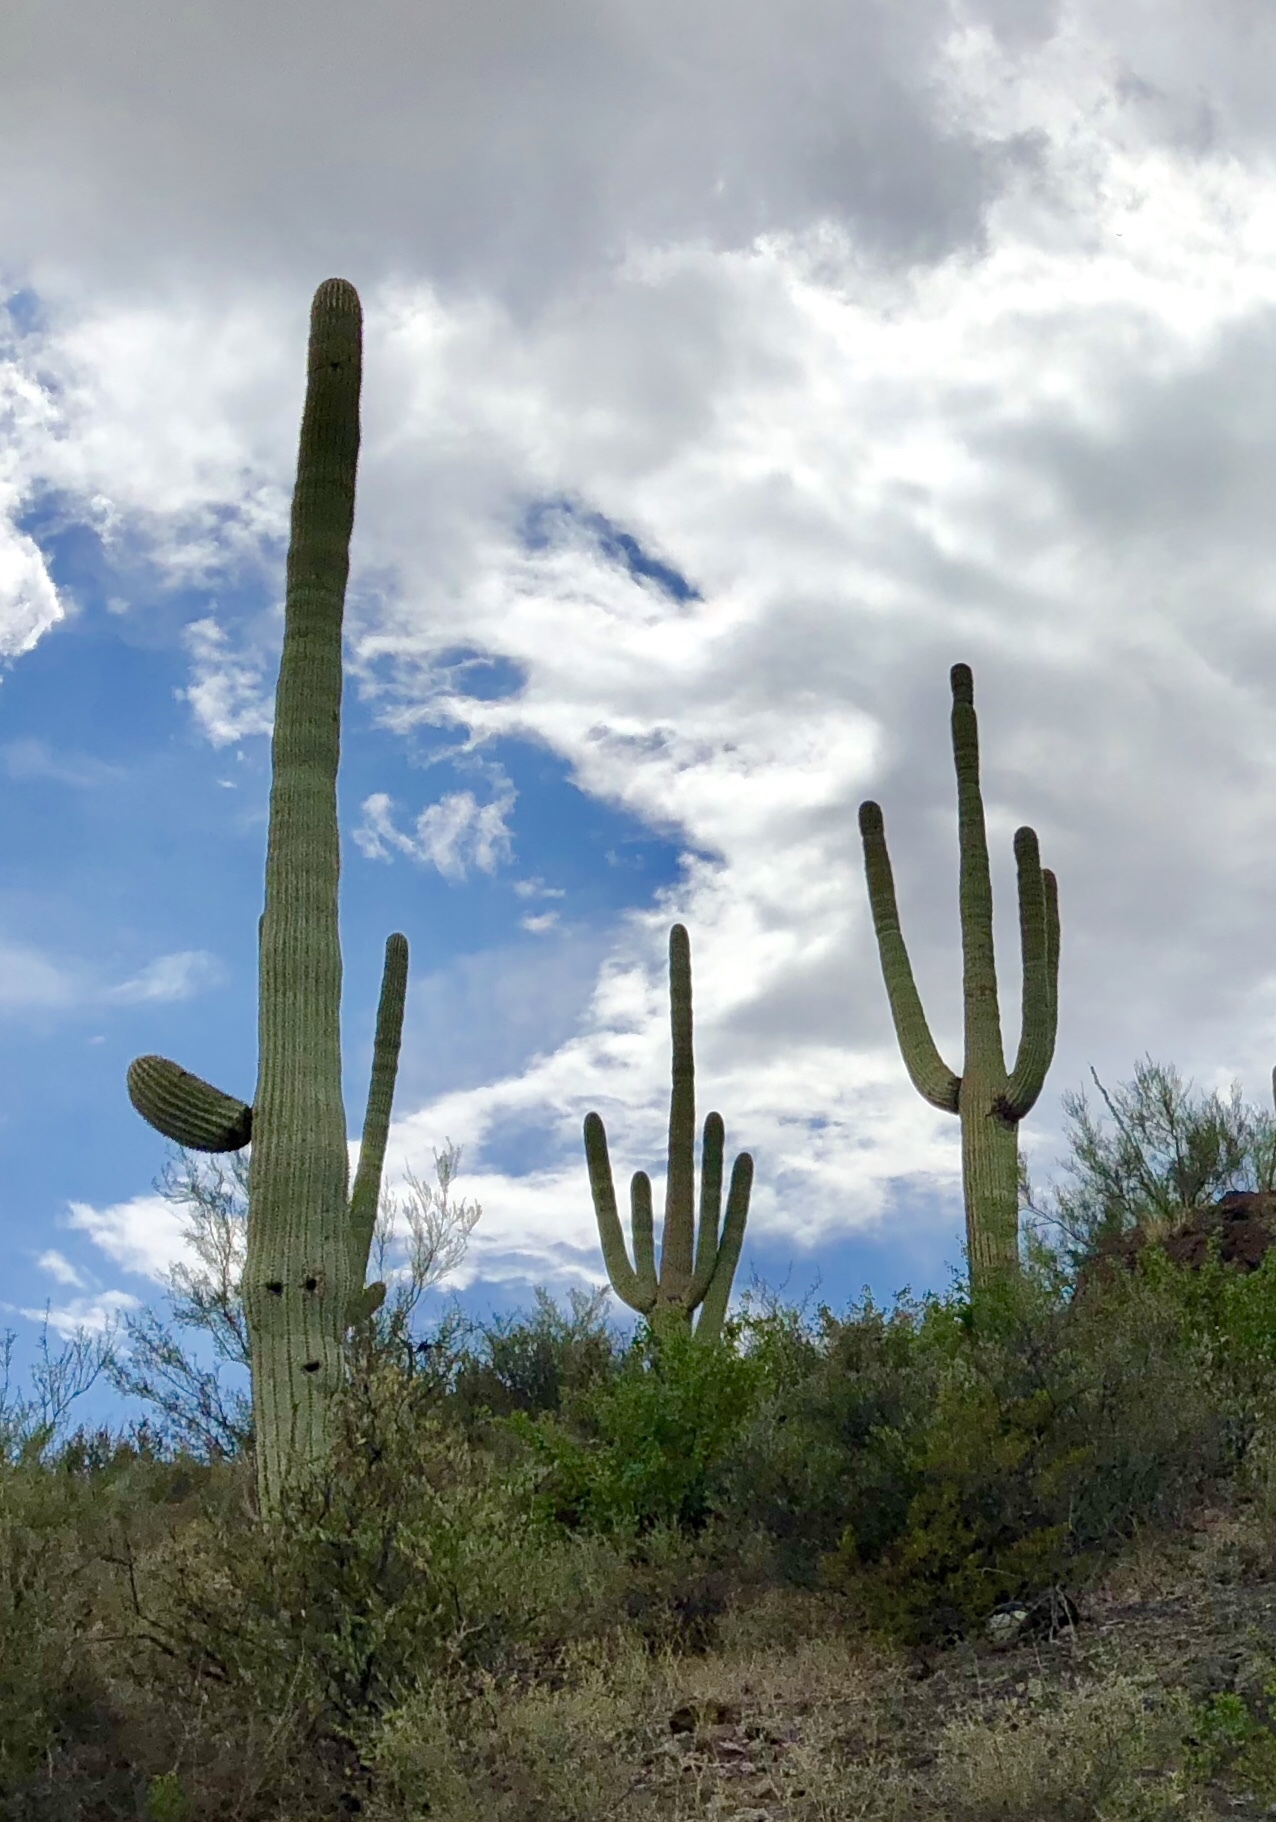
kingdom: Plantae
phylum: Tracheophyta
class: Magnoliopsida
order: Caryophyllales
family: Cactaceae
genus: Carnegiea
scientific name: Carnegiea gigantea
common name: Saguaro
